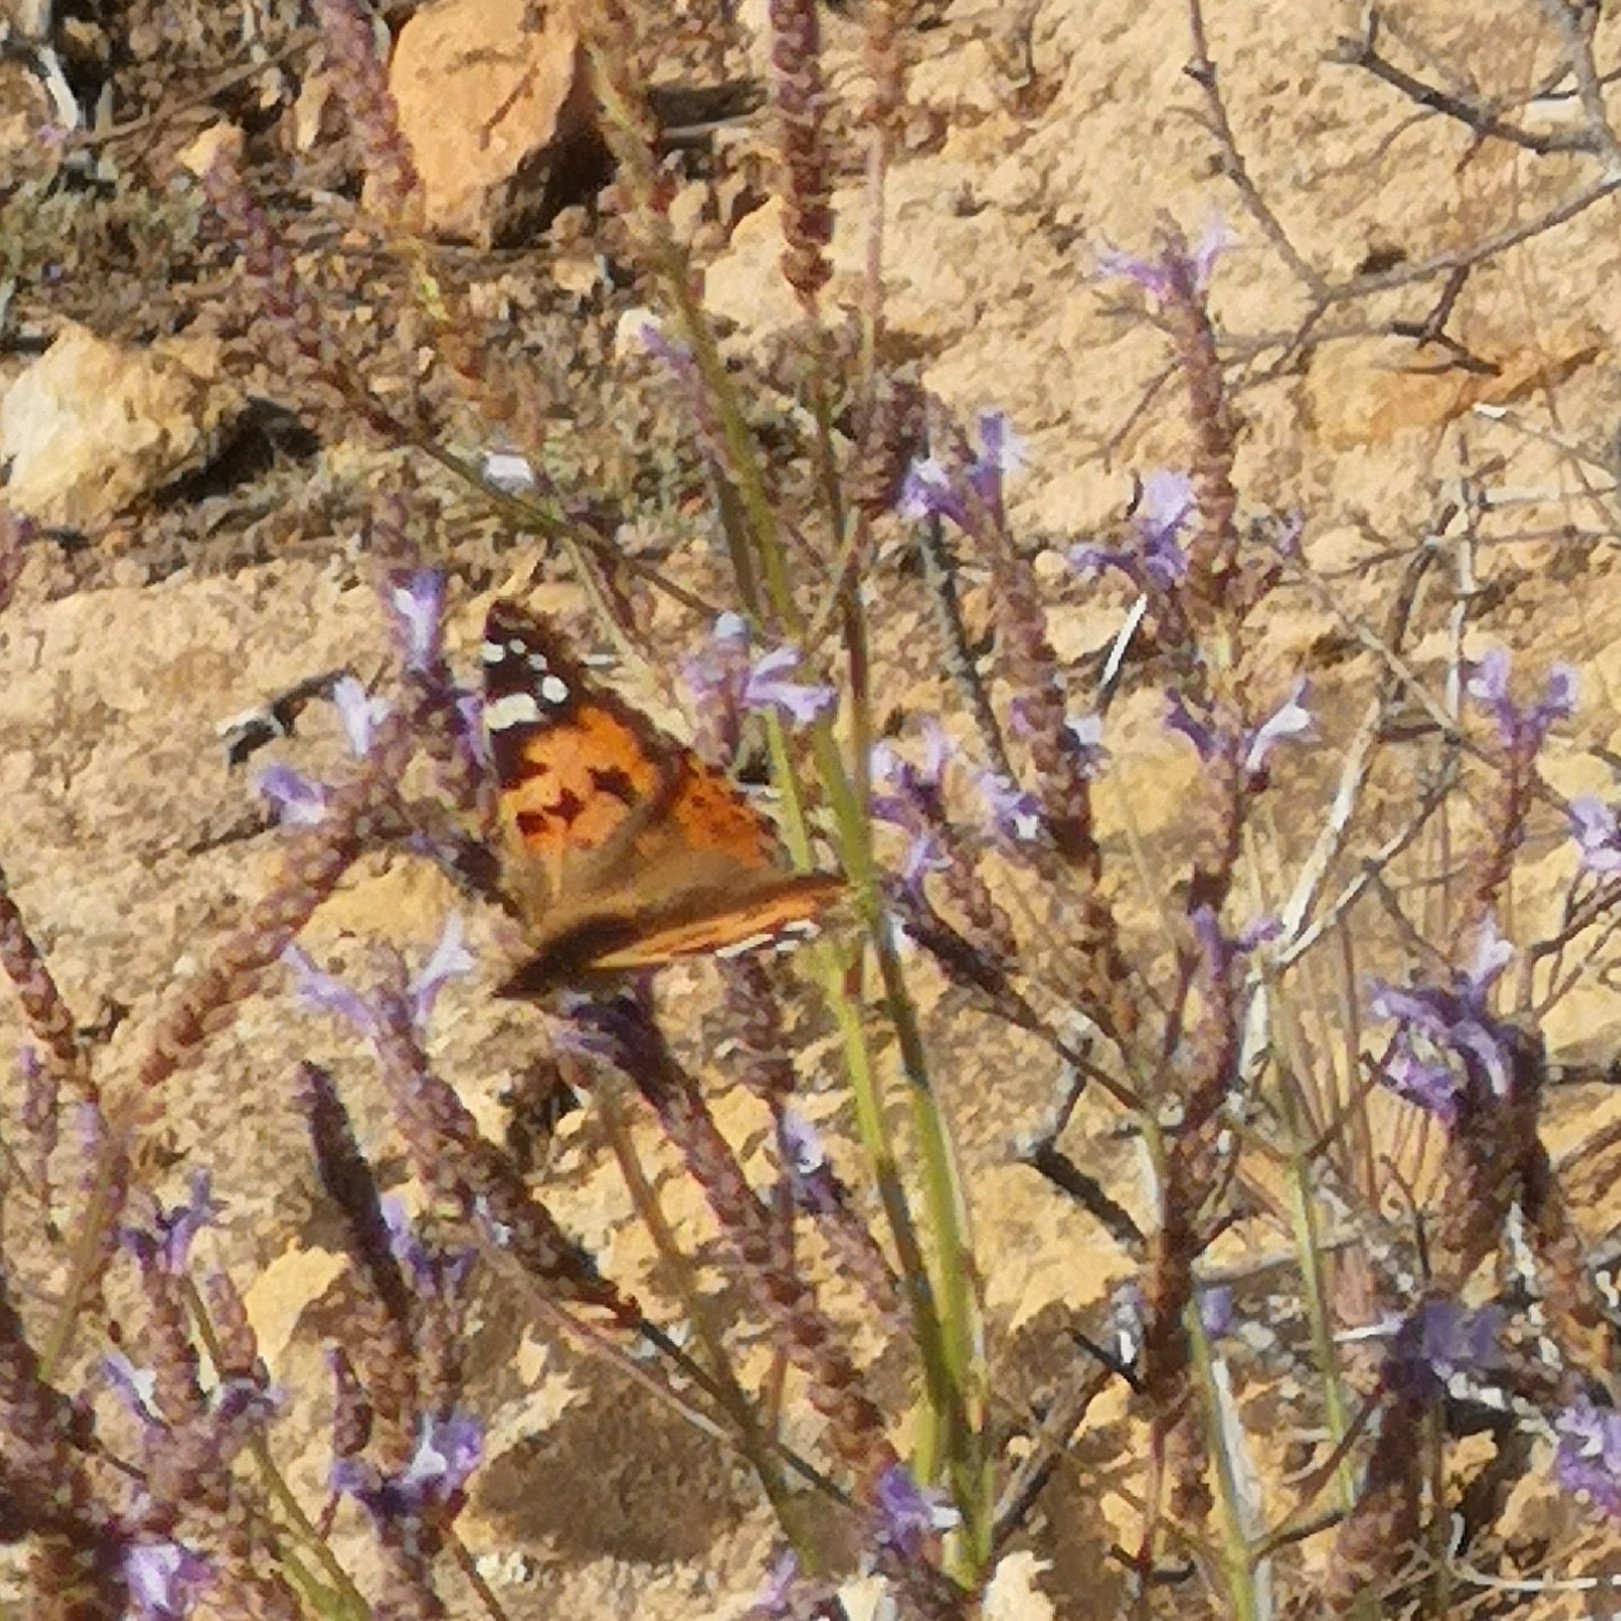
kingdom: Animalia
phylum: Arthropoda
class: Insecta
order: Lepidoptera
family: Nymphalidae
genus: Vanessa
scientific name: Vanessa cardui
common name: Painted lady
